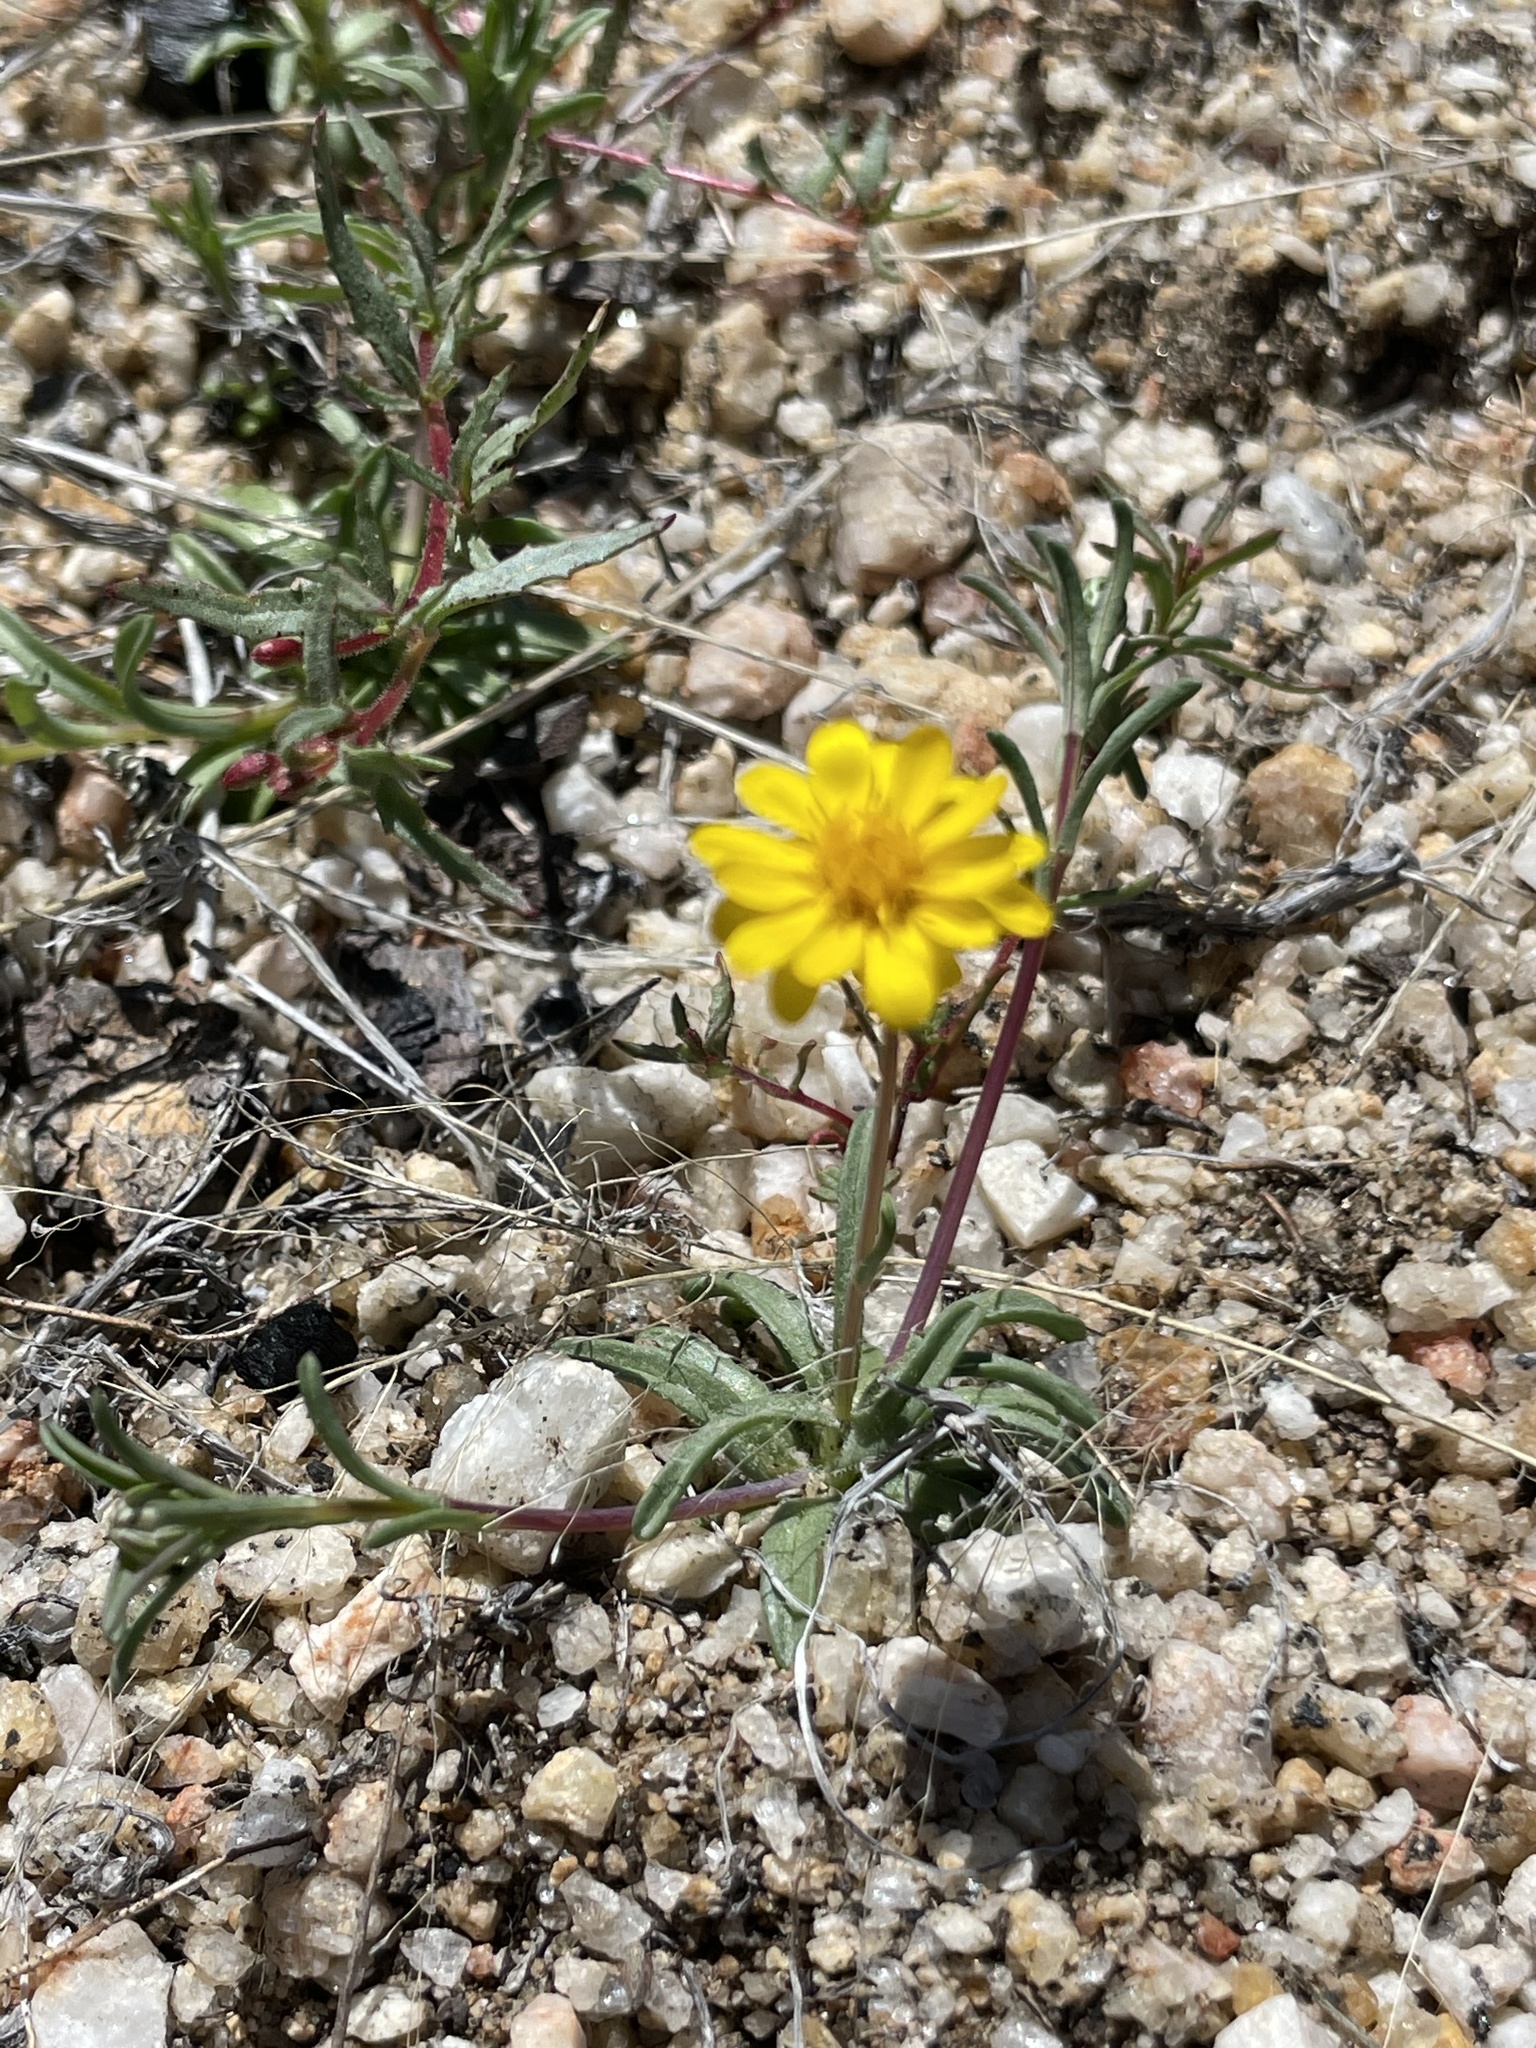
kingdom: Plantae
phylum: Tracheophyta
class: Magnoliopsida
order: Asterales
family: Asteraceae
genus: Pentachaeta
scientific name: Pentachaeta aurea
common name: Golden-ray pentachaeta
